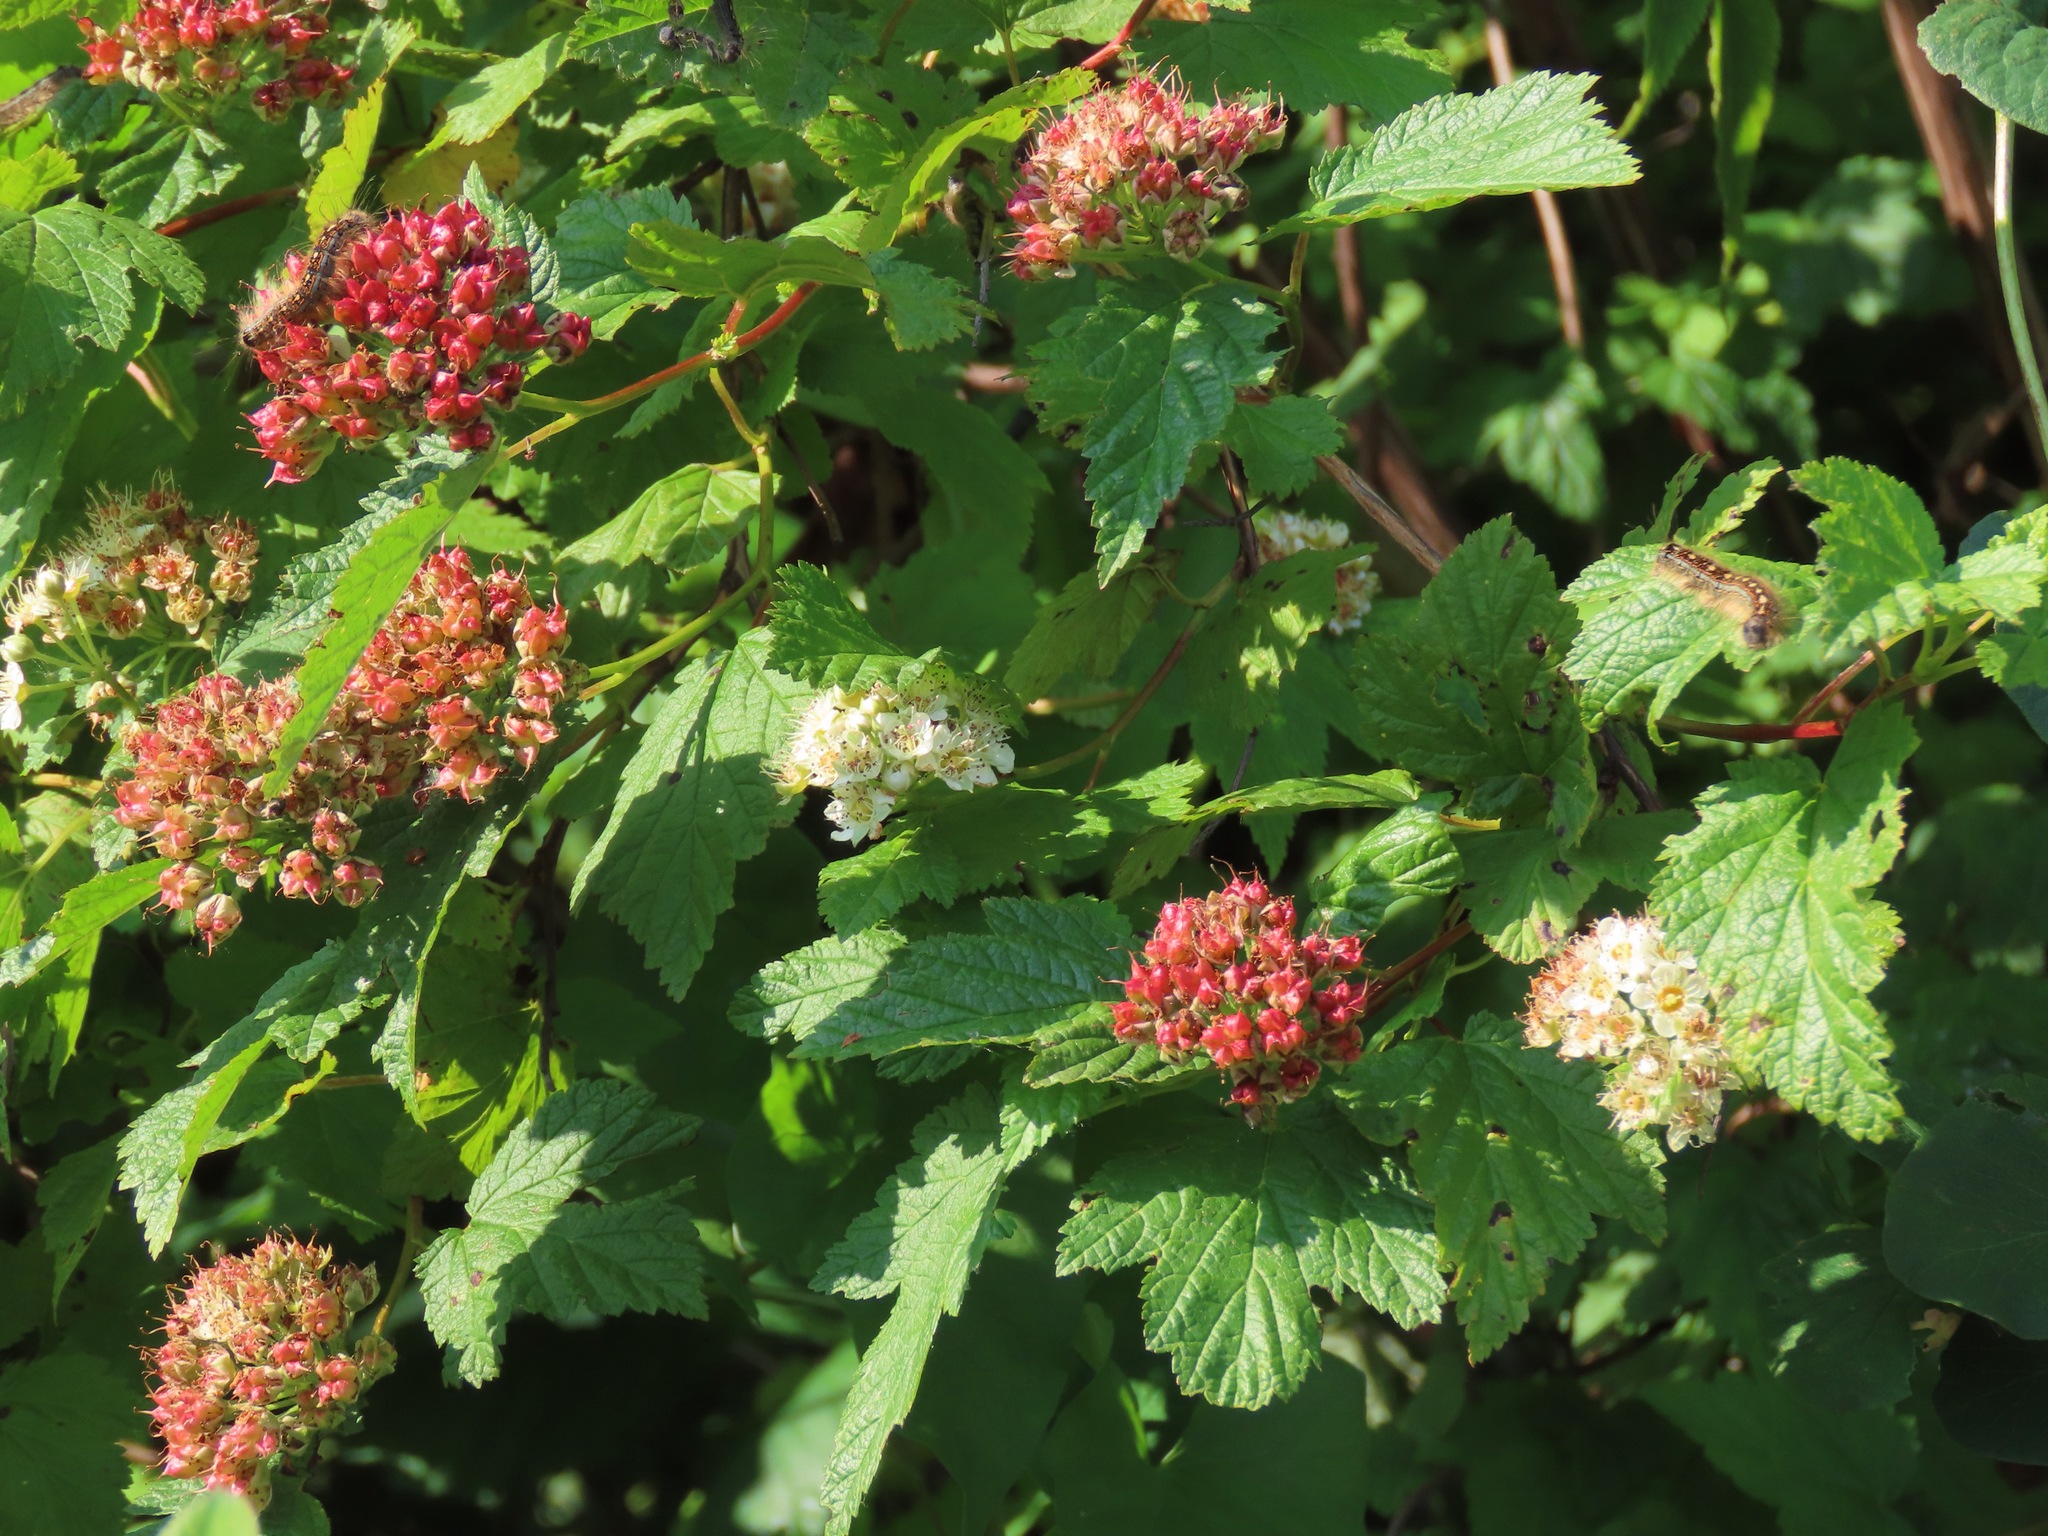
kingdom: Plantae
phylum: Tracheophyta
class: Magnoliopsida
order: Rosales
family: Rosaceae
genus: Physocarpus
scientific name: Physocarpus capitatus
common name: Pacific ninebark
